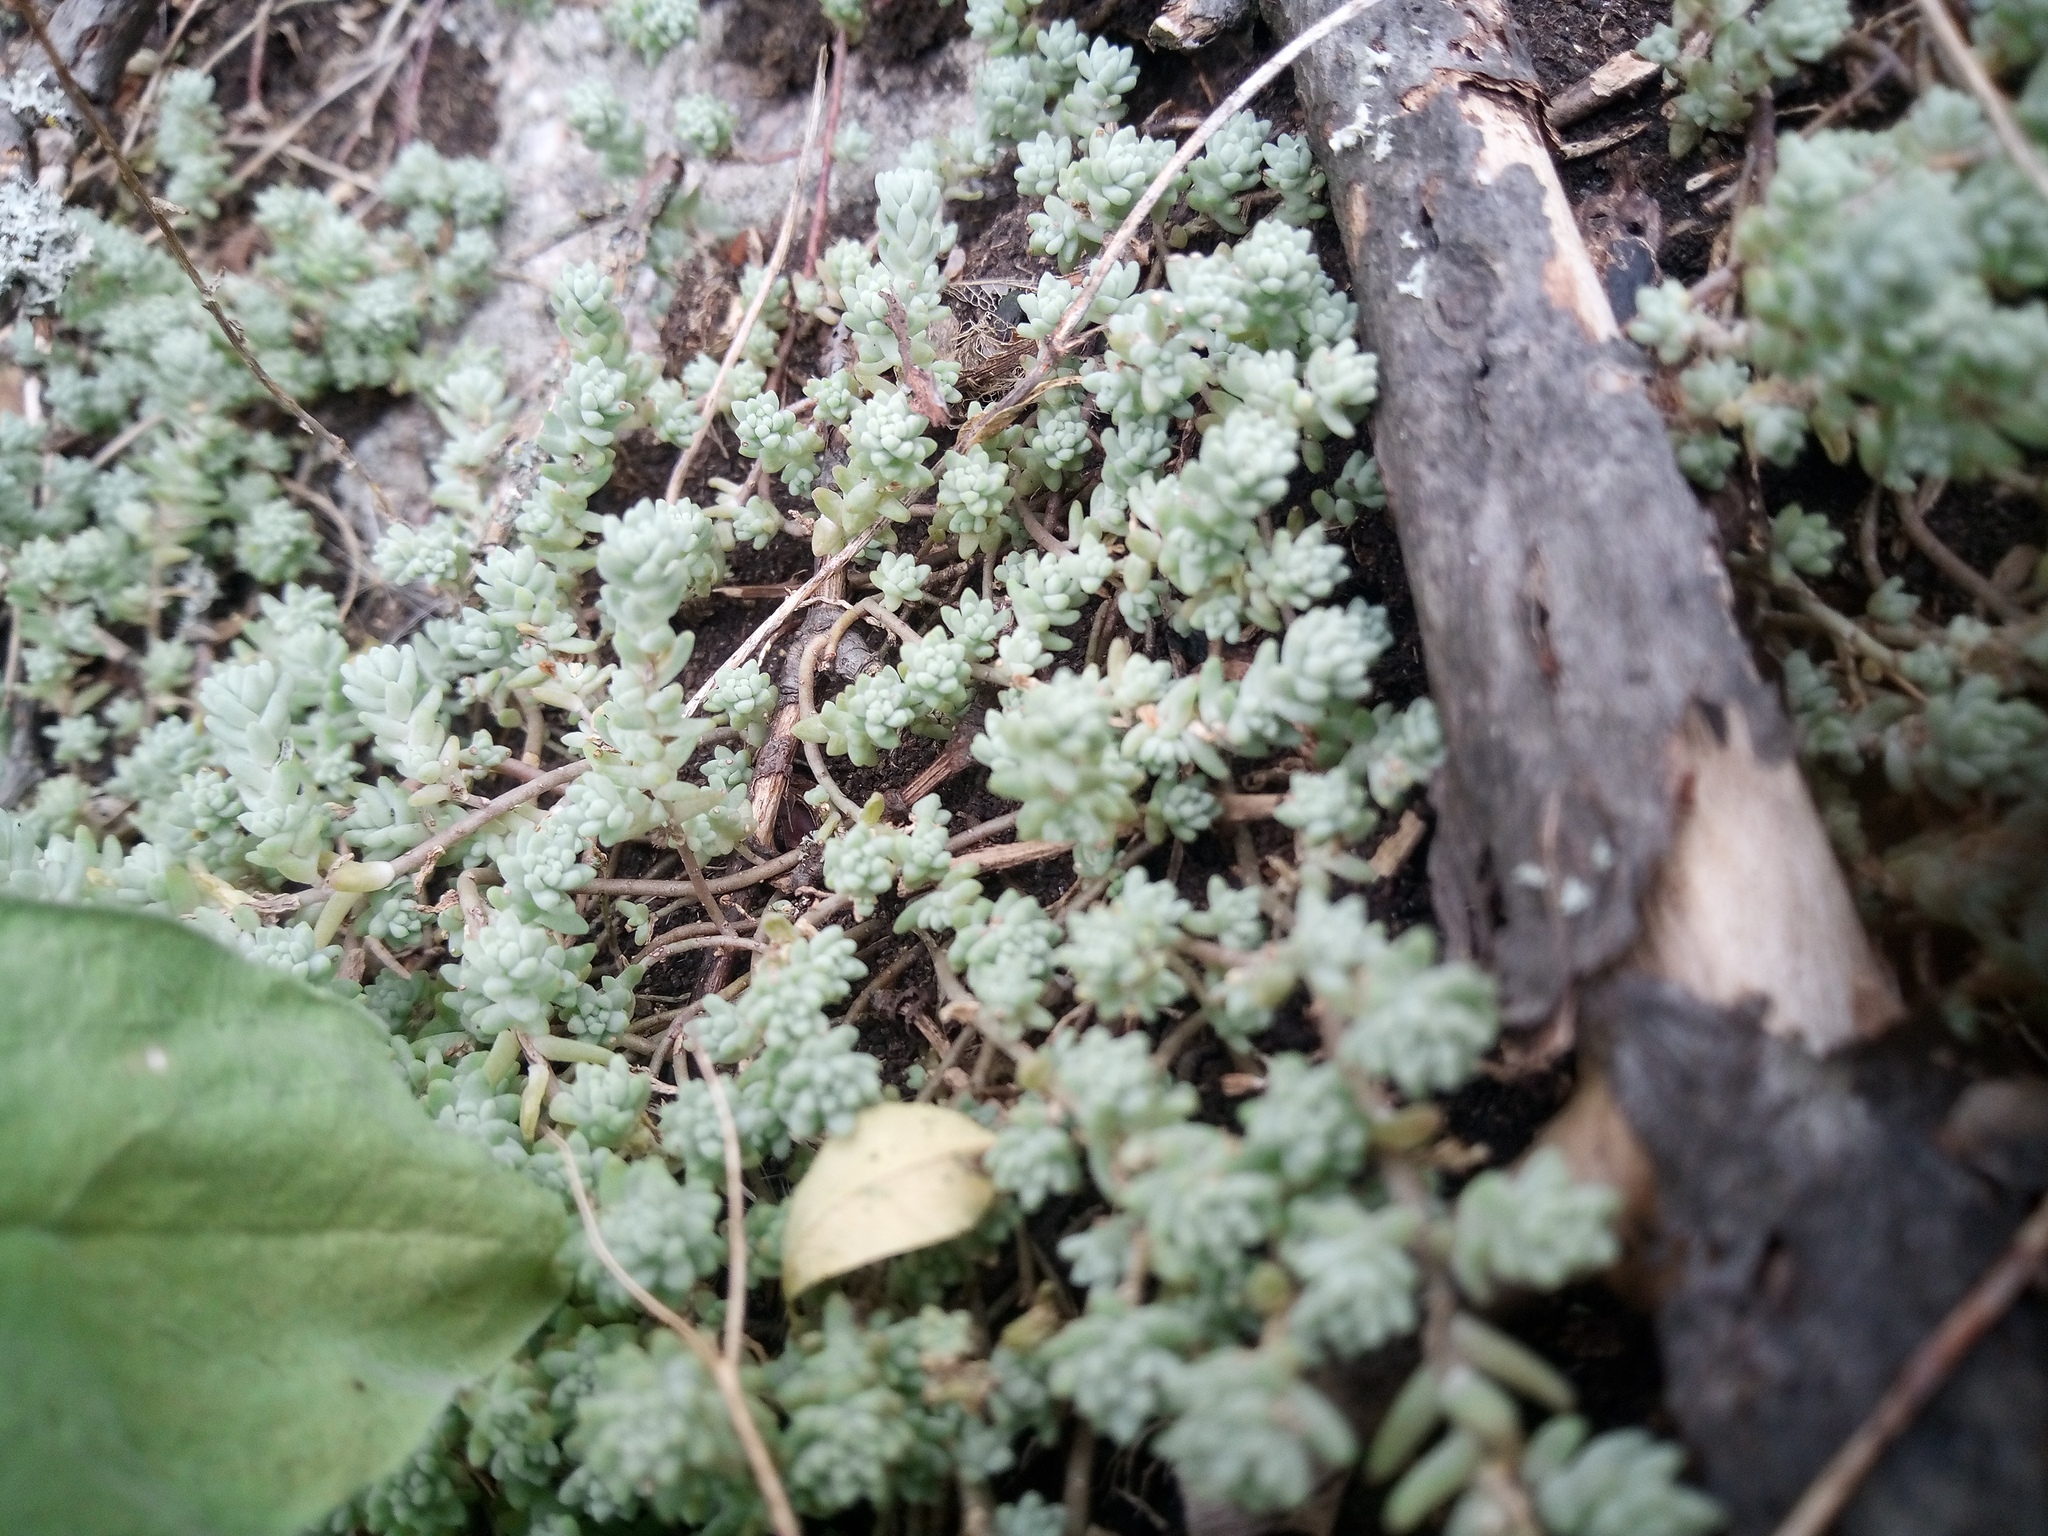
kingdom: Plantae
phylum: Tracheophyta
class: Magnoliopsida
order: Saxifragales
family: Crassulaceae
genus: Sedum
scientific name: Sedum borissovae
